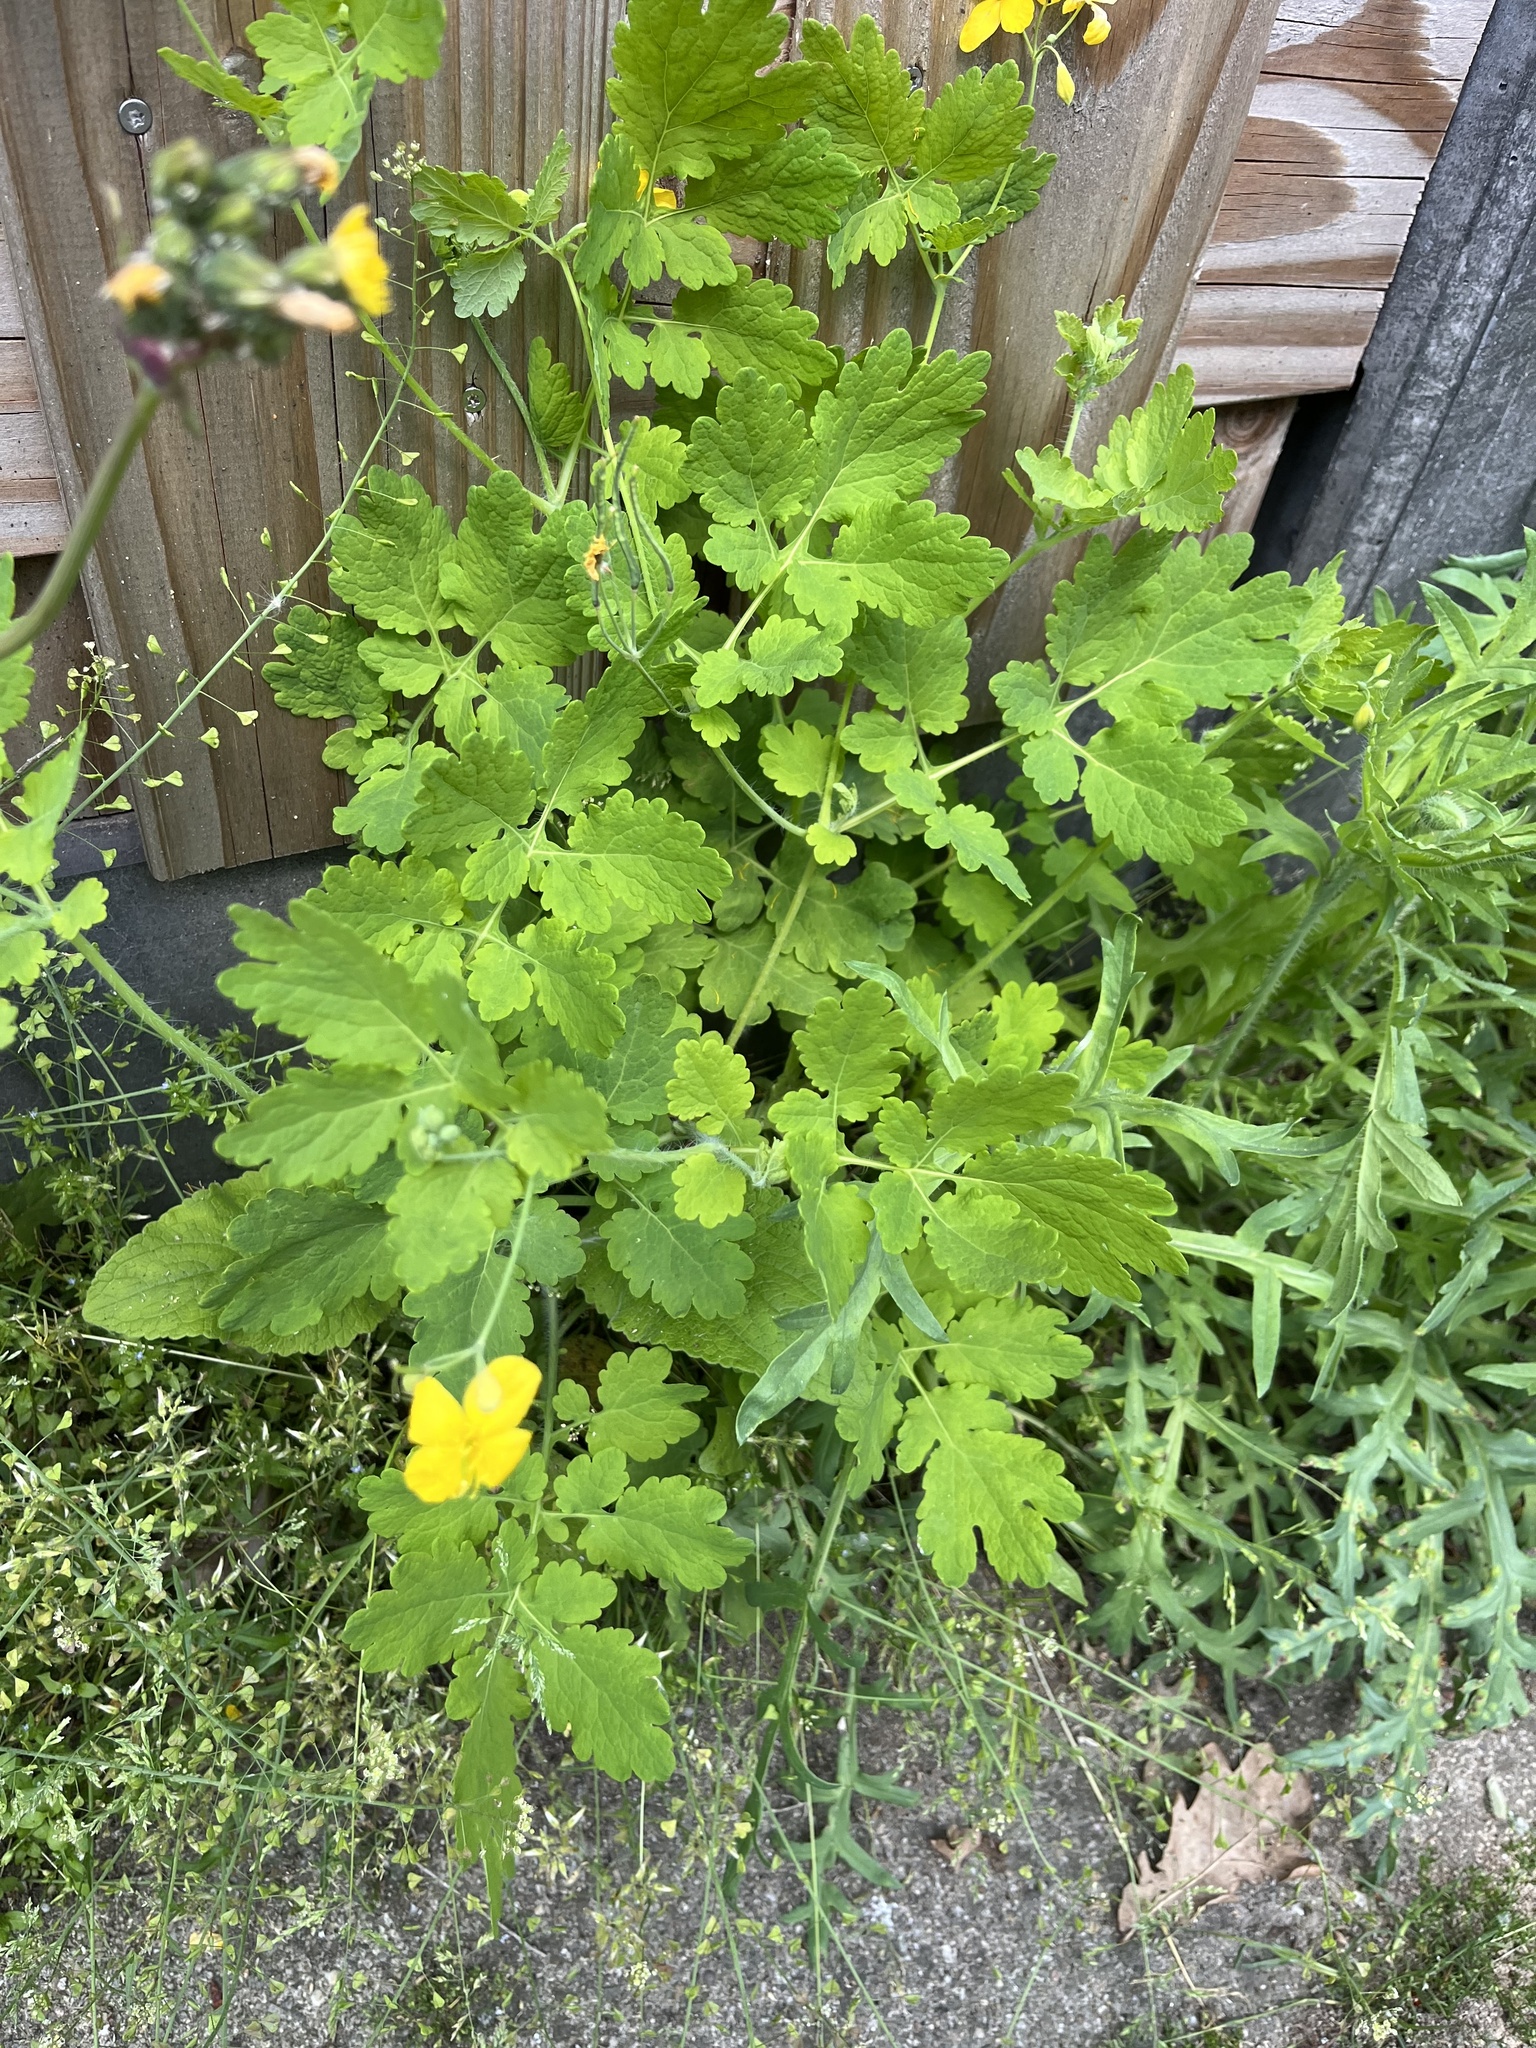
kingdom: Plantae
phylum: Tracheophyta
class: Magnoliopsida
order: Ranunculales
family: Papaveraceae
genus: Chelidonium
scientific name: Chelidonium majus
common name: Greater celandine
